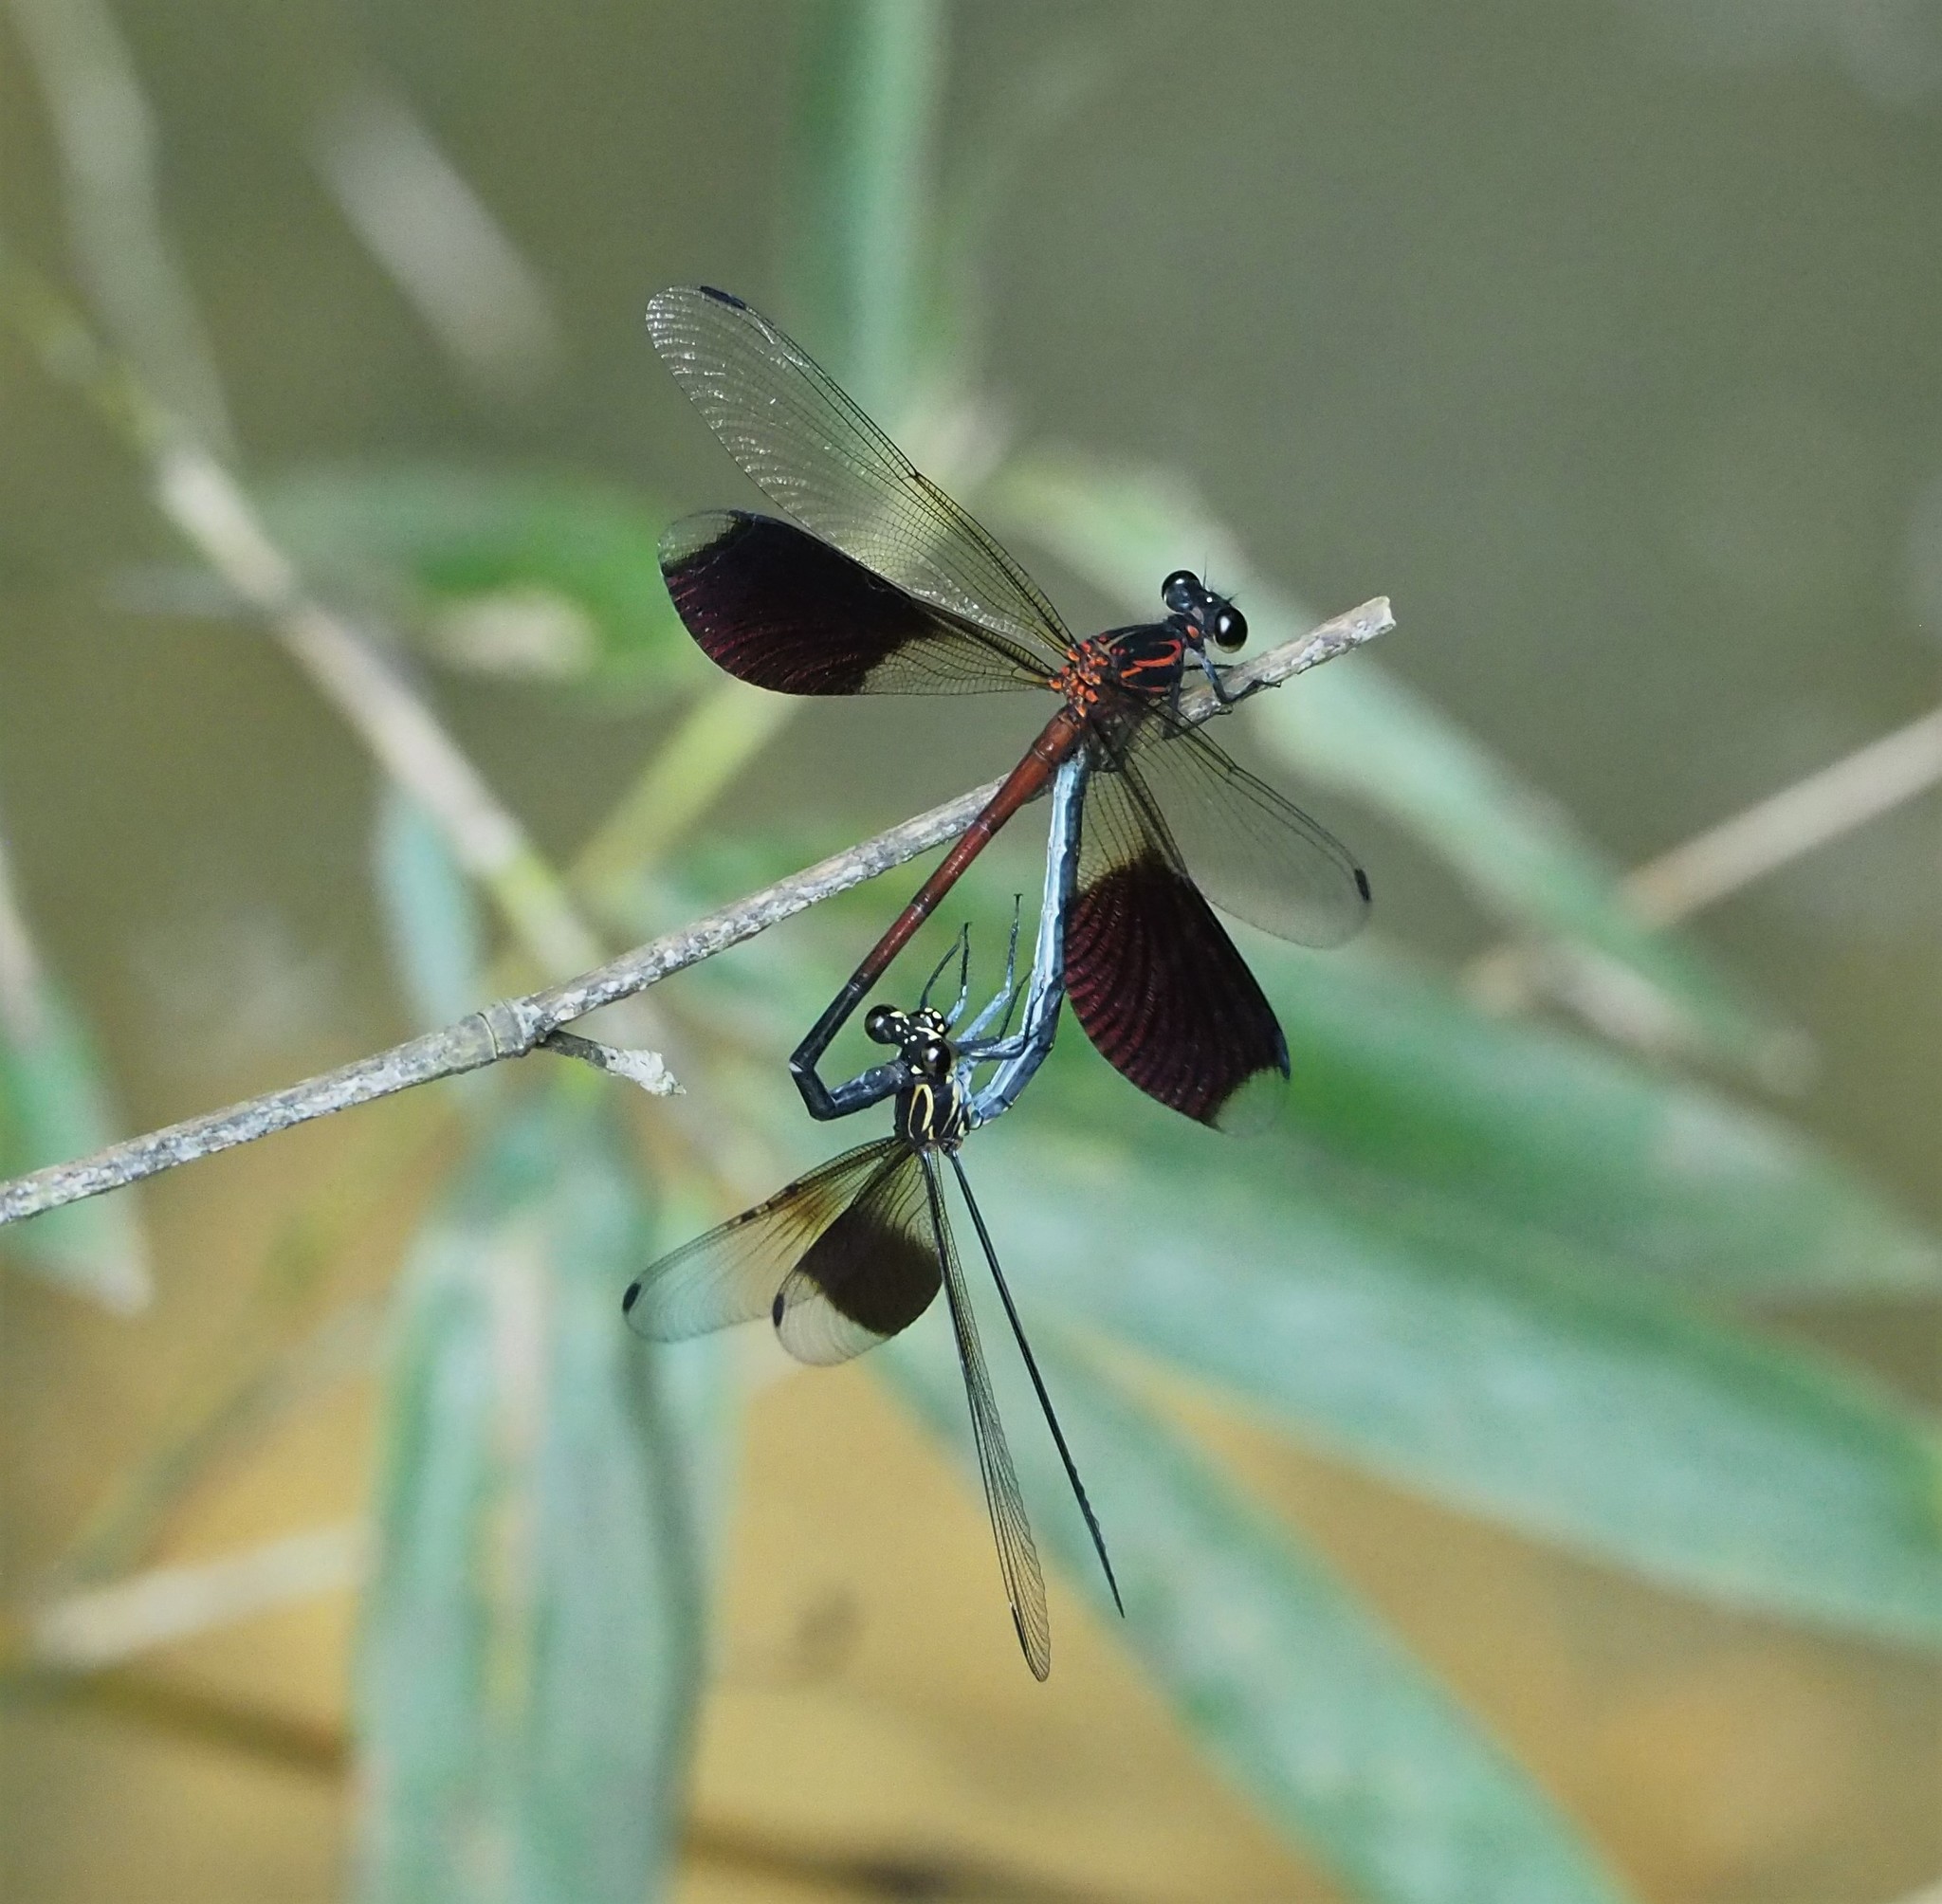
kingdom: Animalia
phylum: Arthropoda
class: Insecta
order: Odonata
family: Euphaeidae
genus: Euphaea
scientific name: Euphaea formosa
